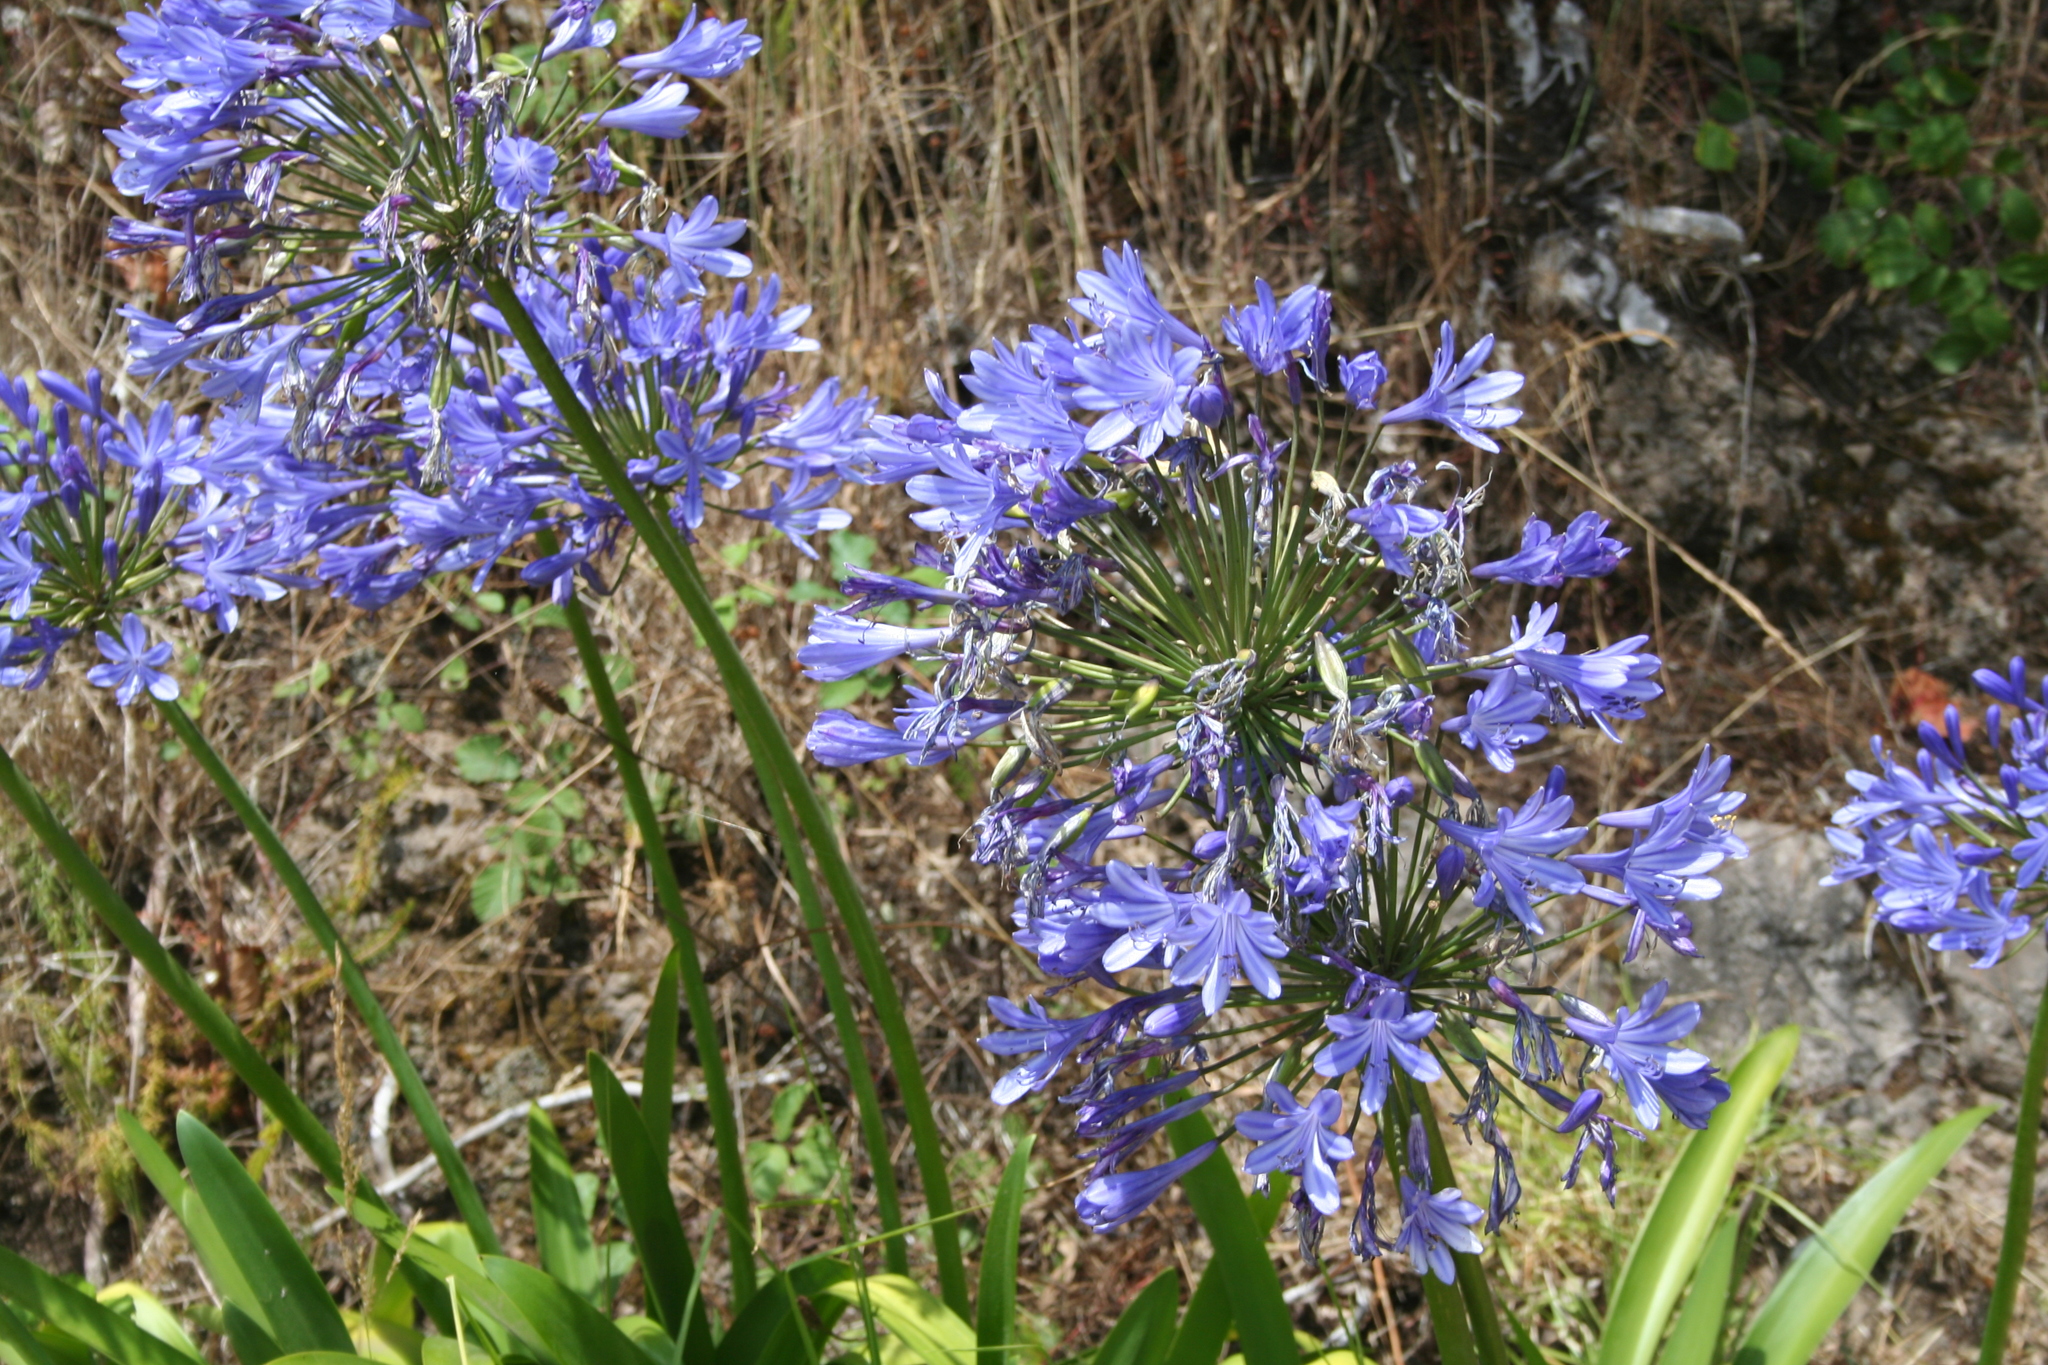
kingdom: Plantae
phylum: Tracheophyta
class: Liliopsida
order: Asparagales
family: Amaryllidaceae
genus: Agapanthus
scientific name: Agapanthus praecox
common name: African-lily
